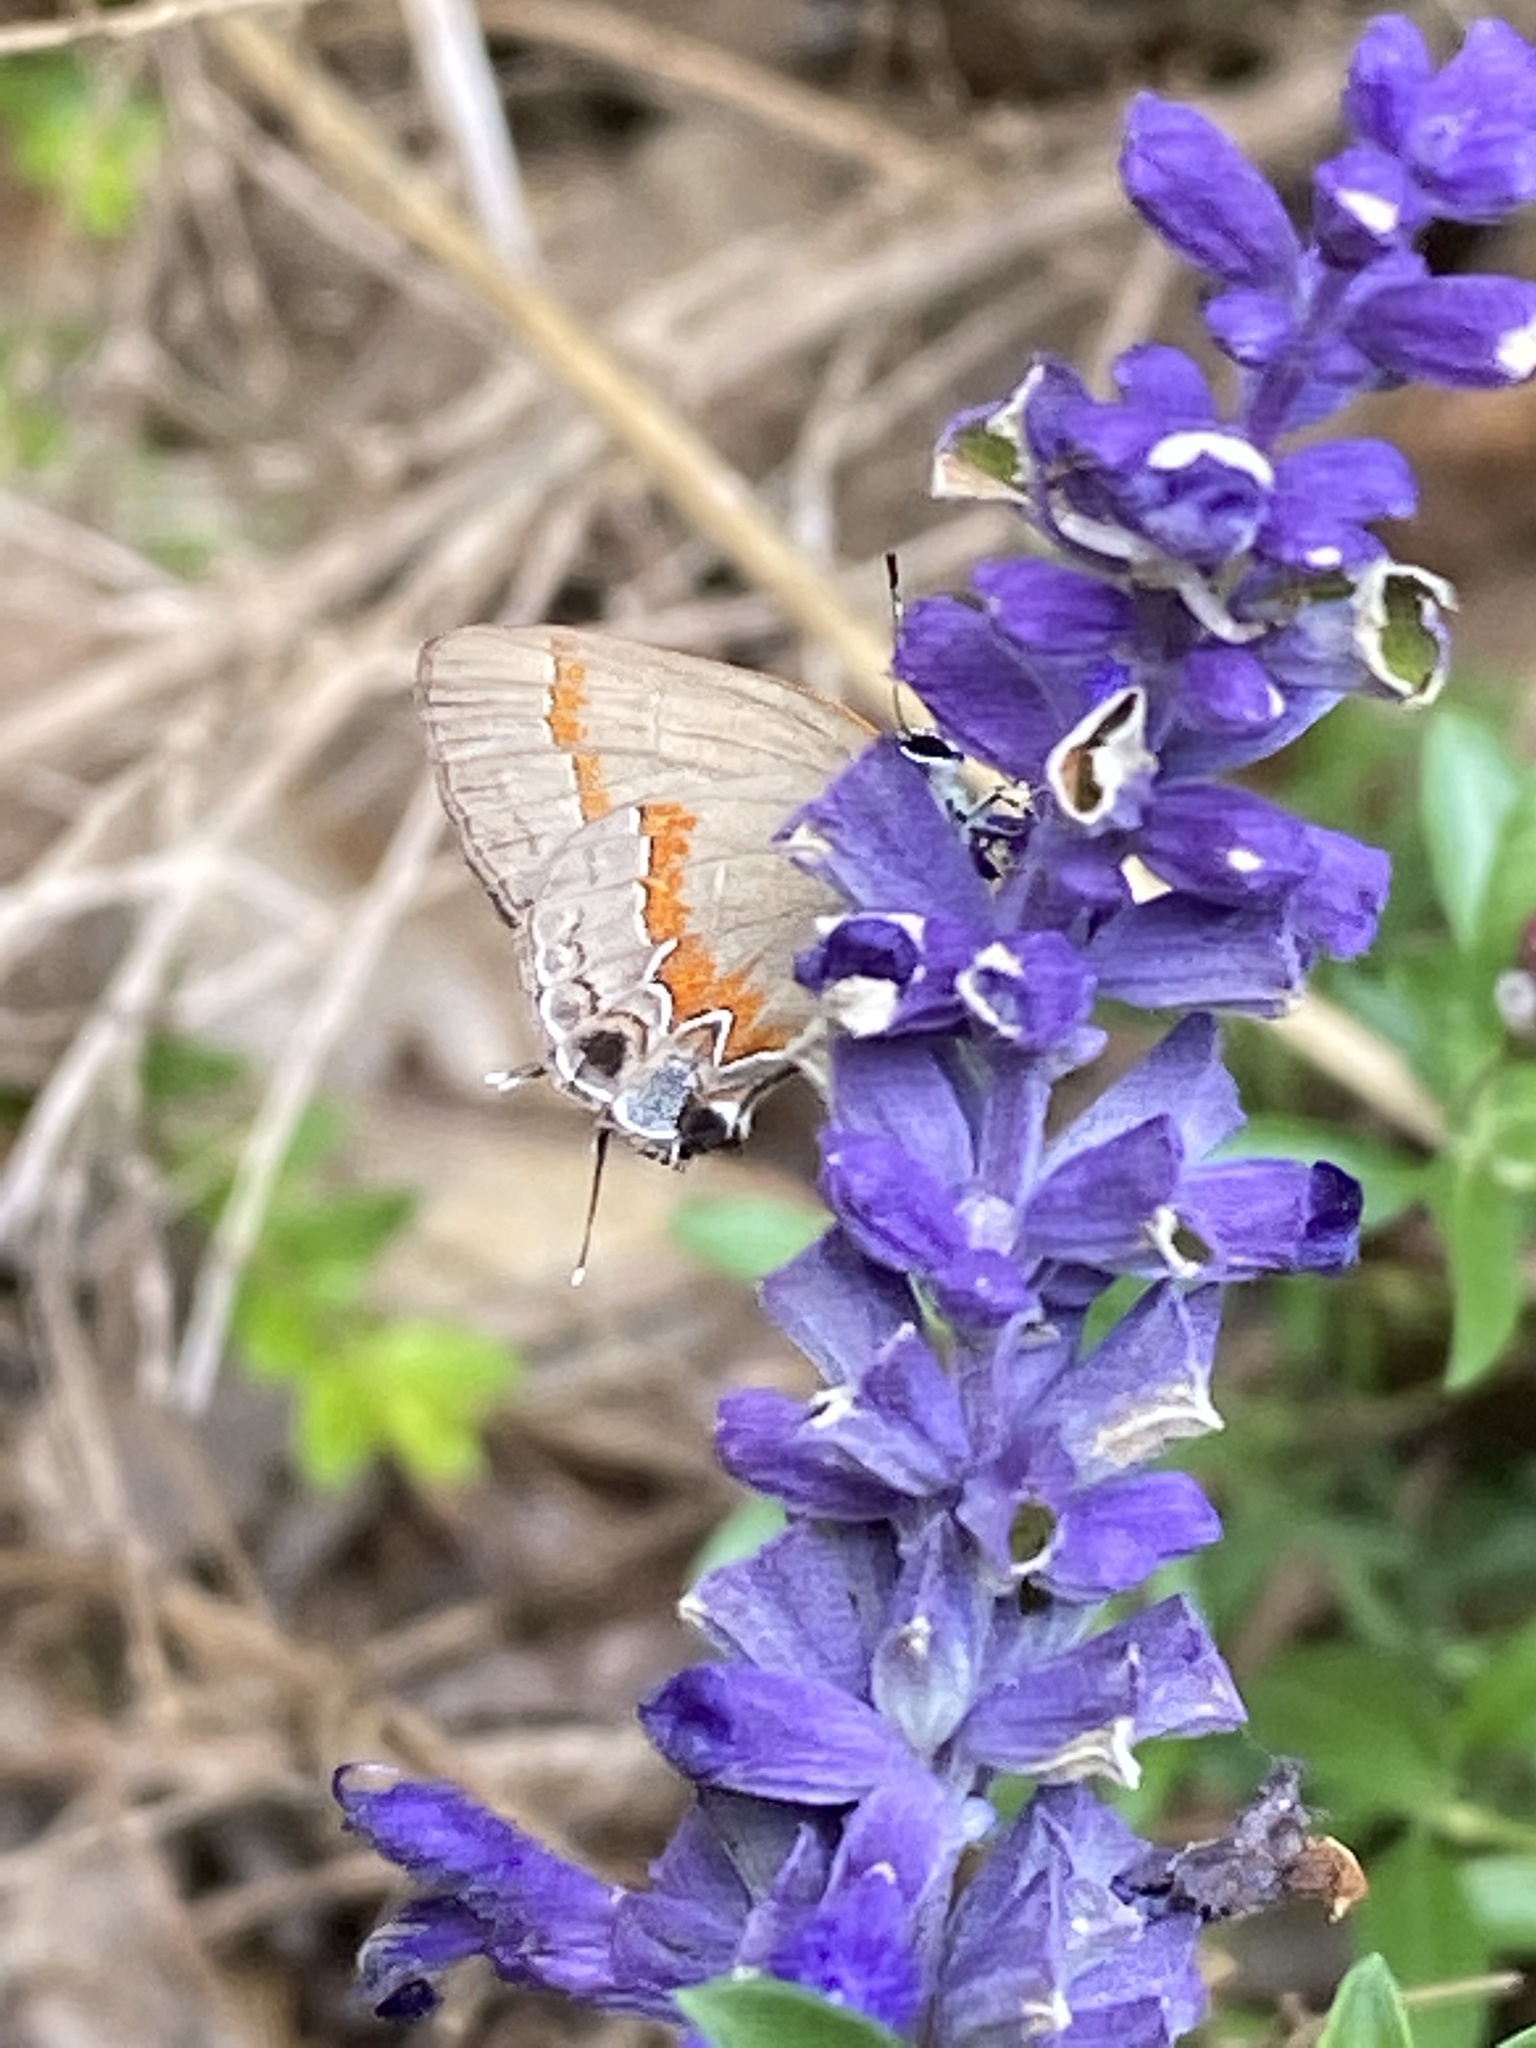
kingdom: Animalia
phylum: Arthropoda
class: Insecta
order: Lepidoptera
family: Lycaenidae
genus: Calycopis
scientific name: Calycopis cecrops
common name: Red-banded hairstreak
